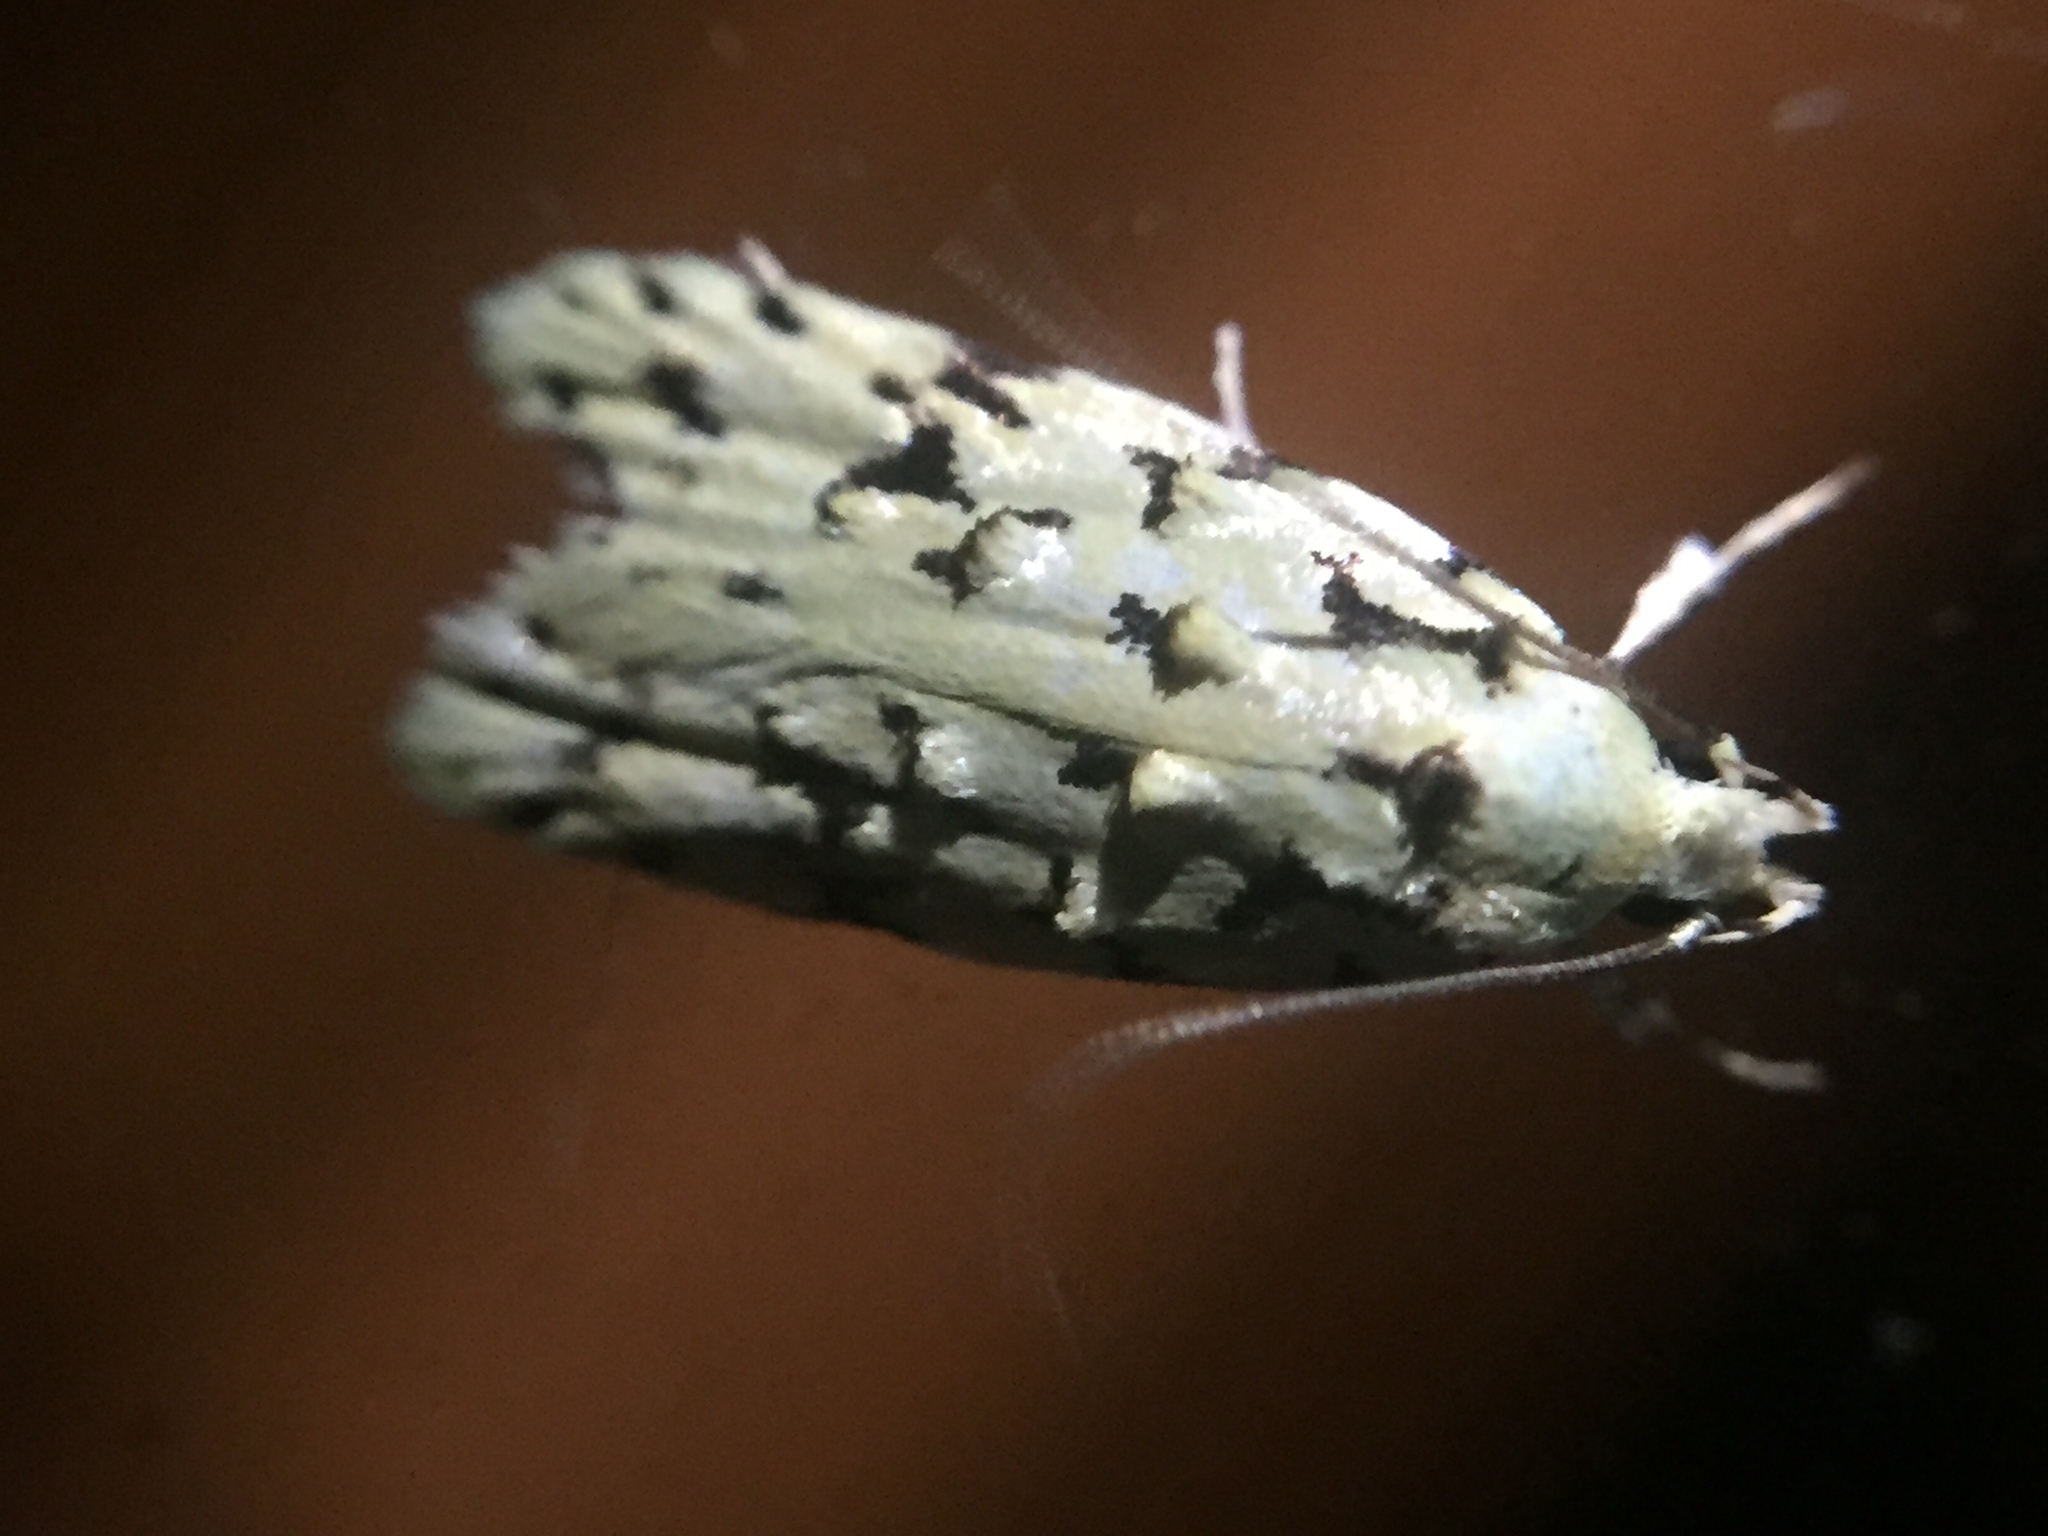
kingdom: Animalia
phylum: Arthropoda
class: Insecta
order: Lepidoptera
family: Oecophoridae
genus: Izatha
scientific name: Izatha peroneanella
